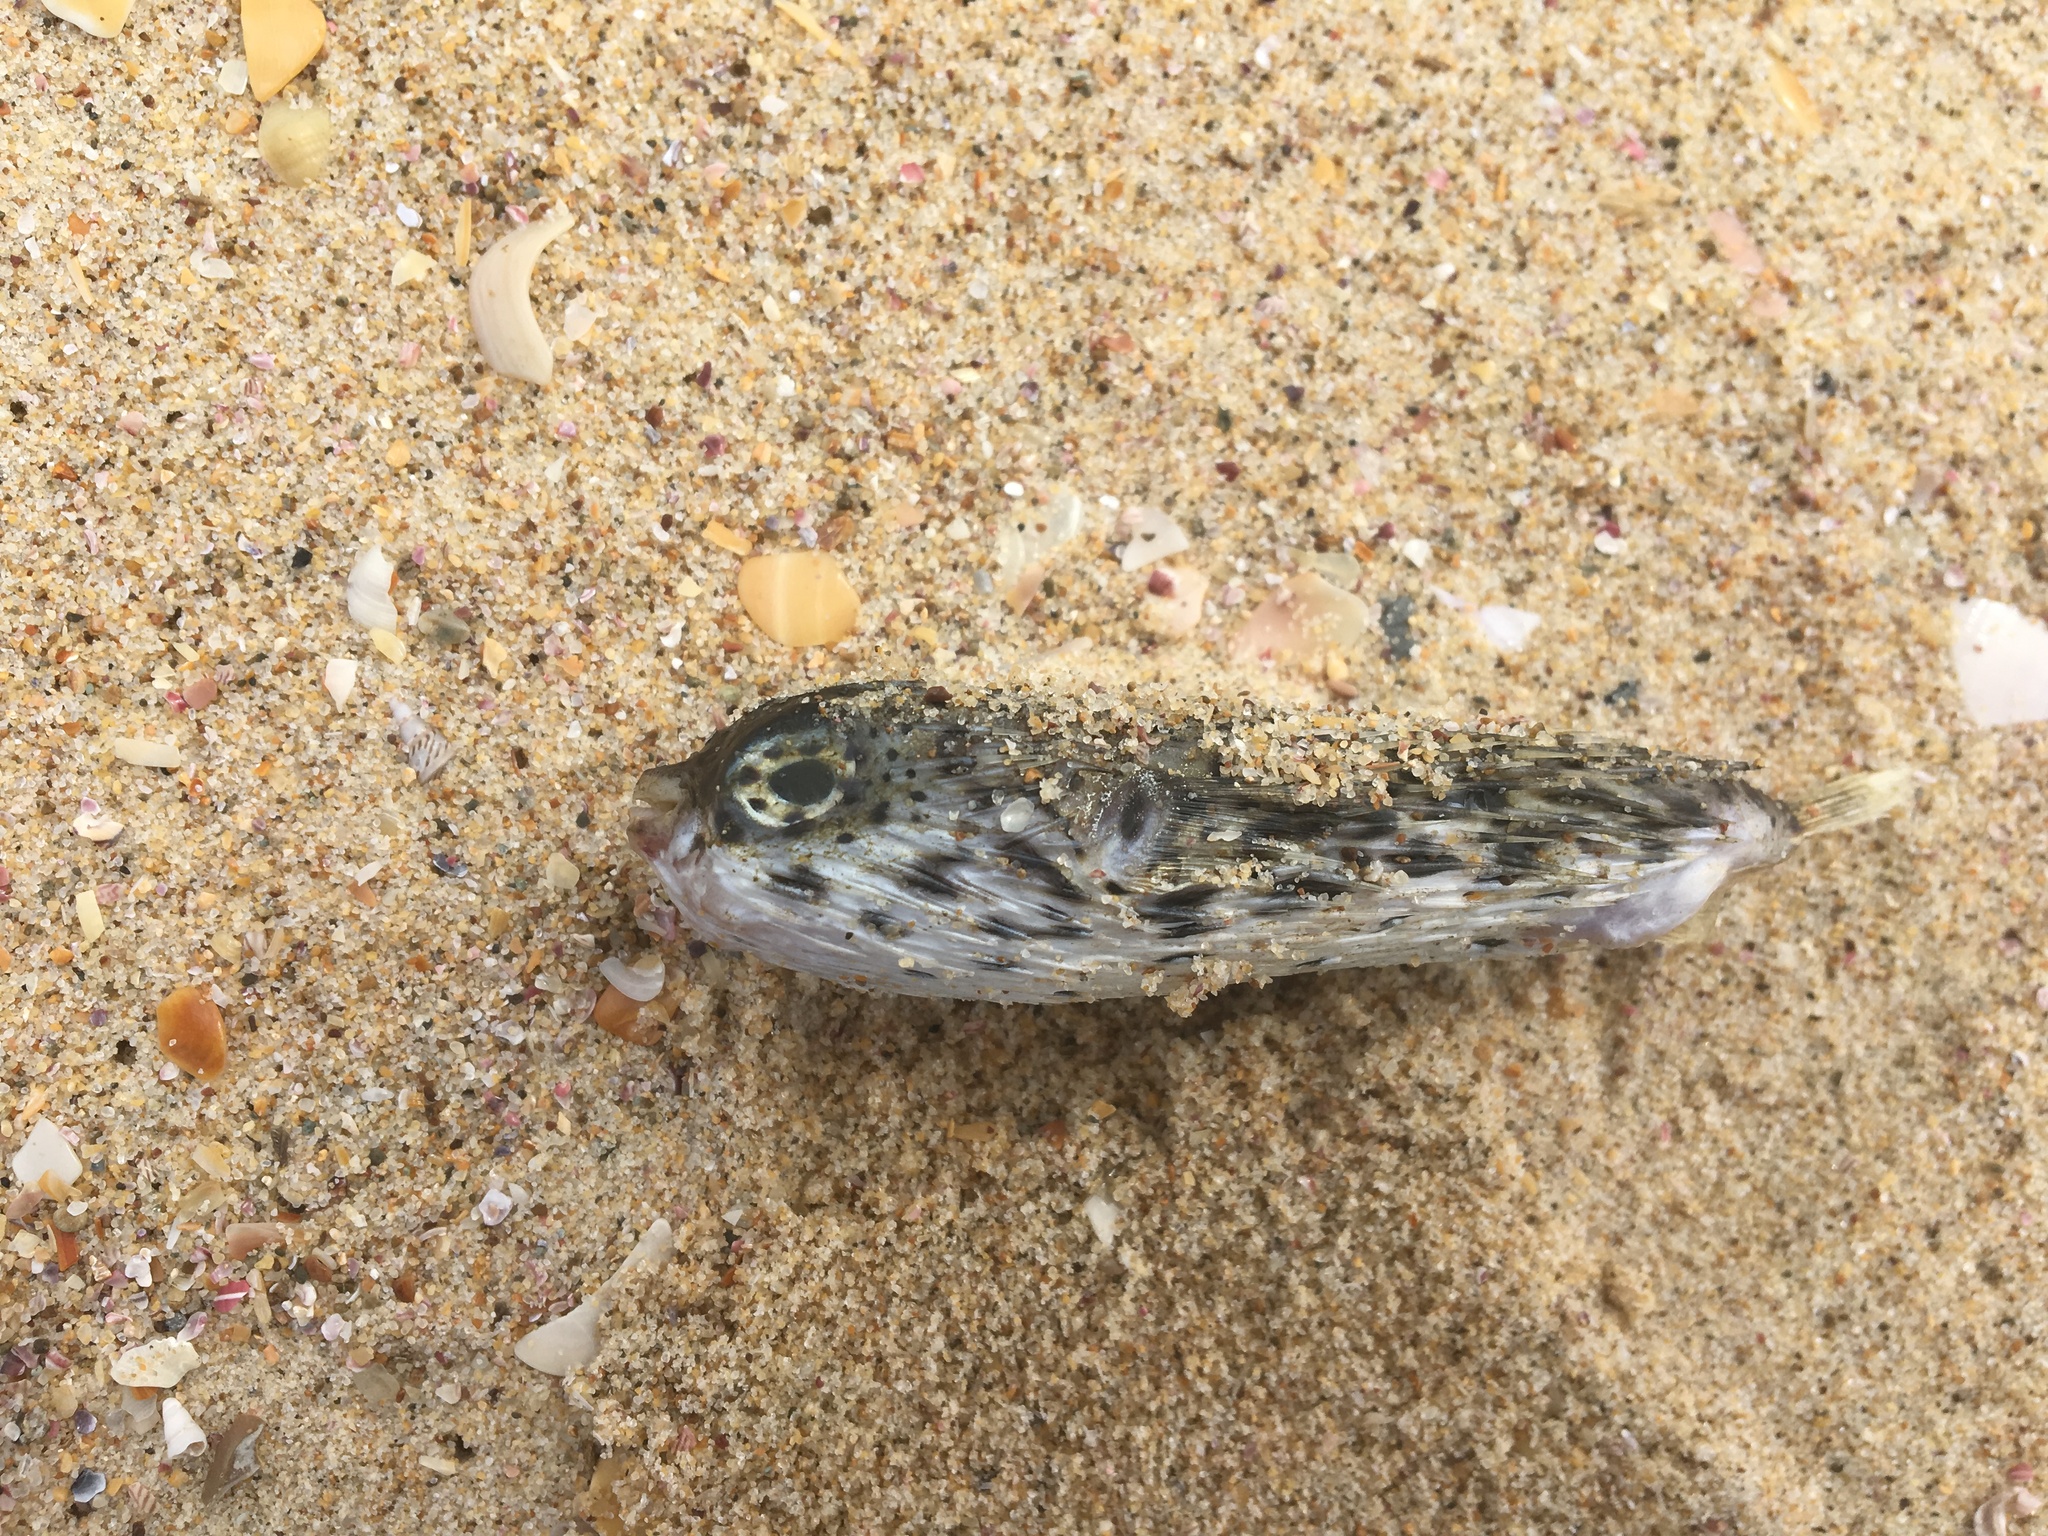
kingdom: Animalia
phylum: Chordata
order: Tetraodontiformes
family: Diodontidae
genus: Diodon
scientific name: Diodon holocanthus
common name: Balloonfish
